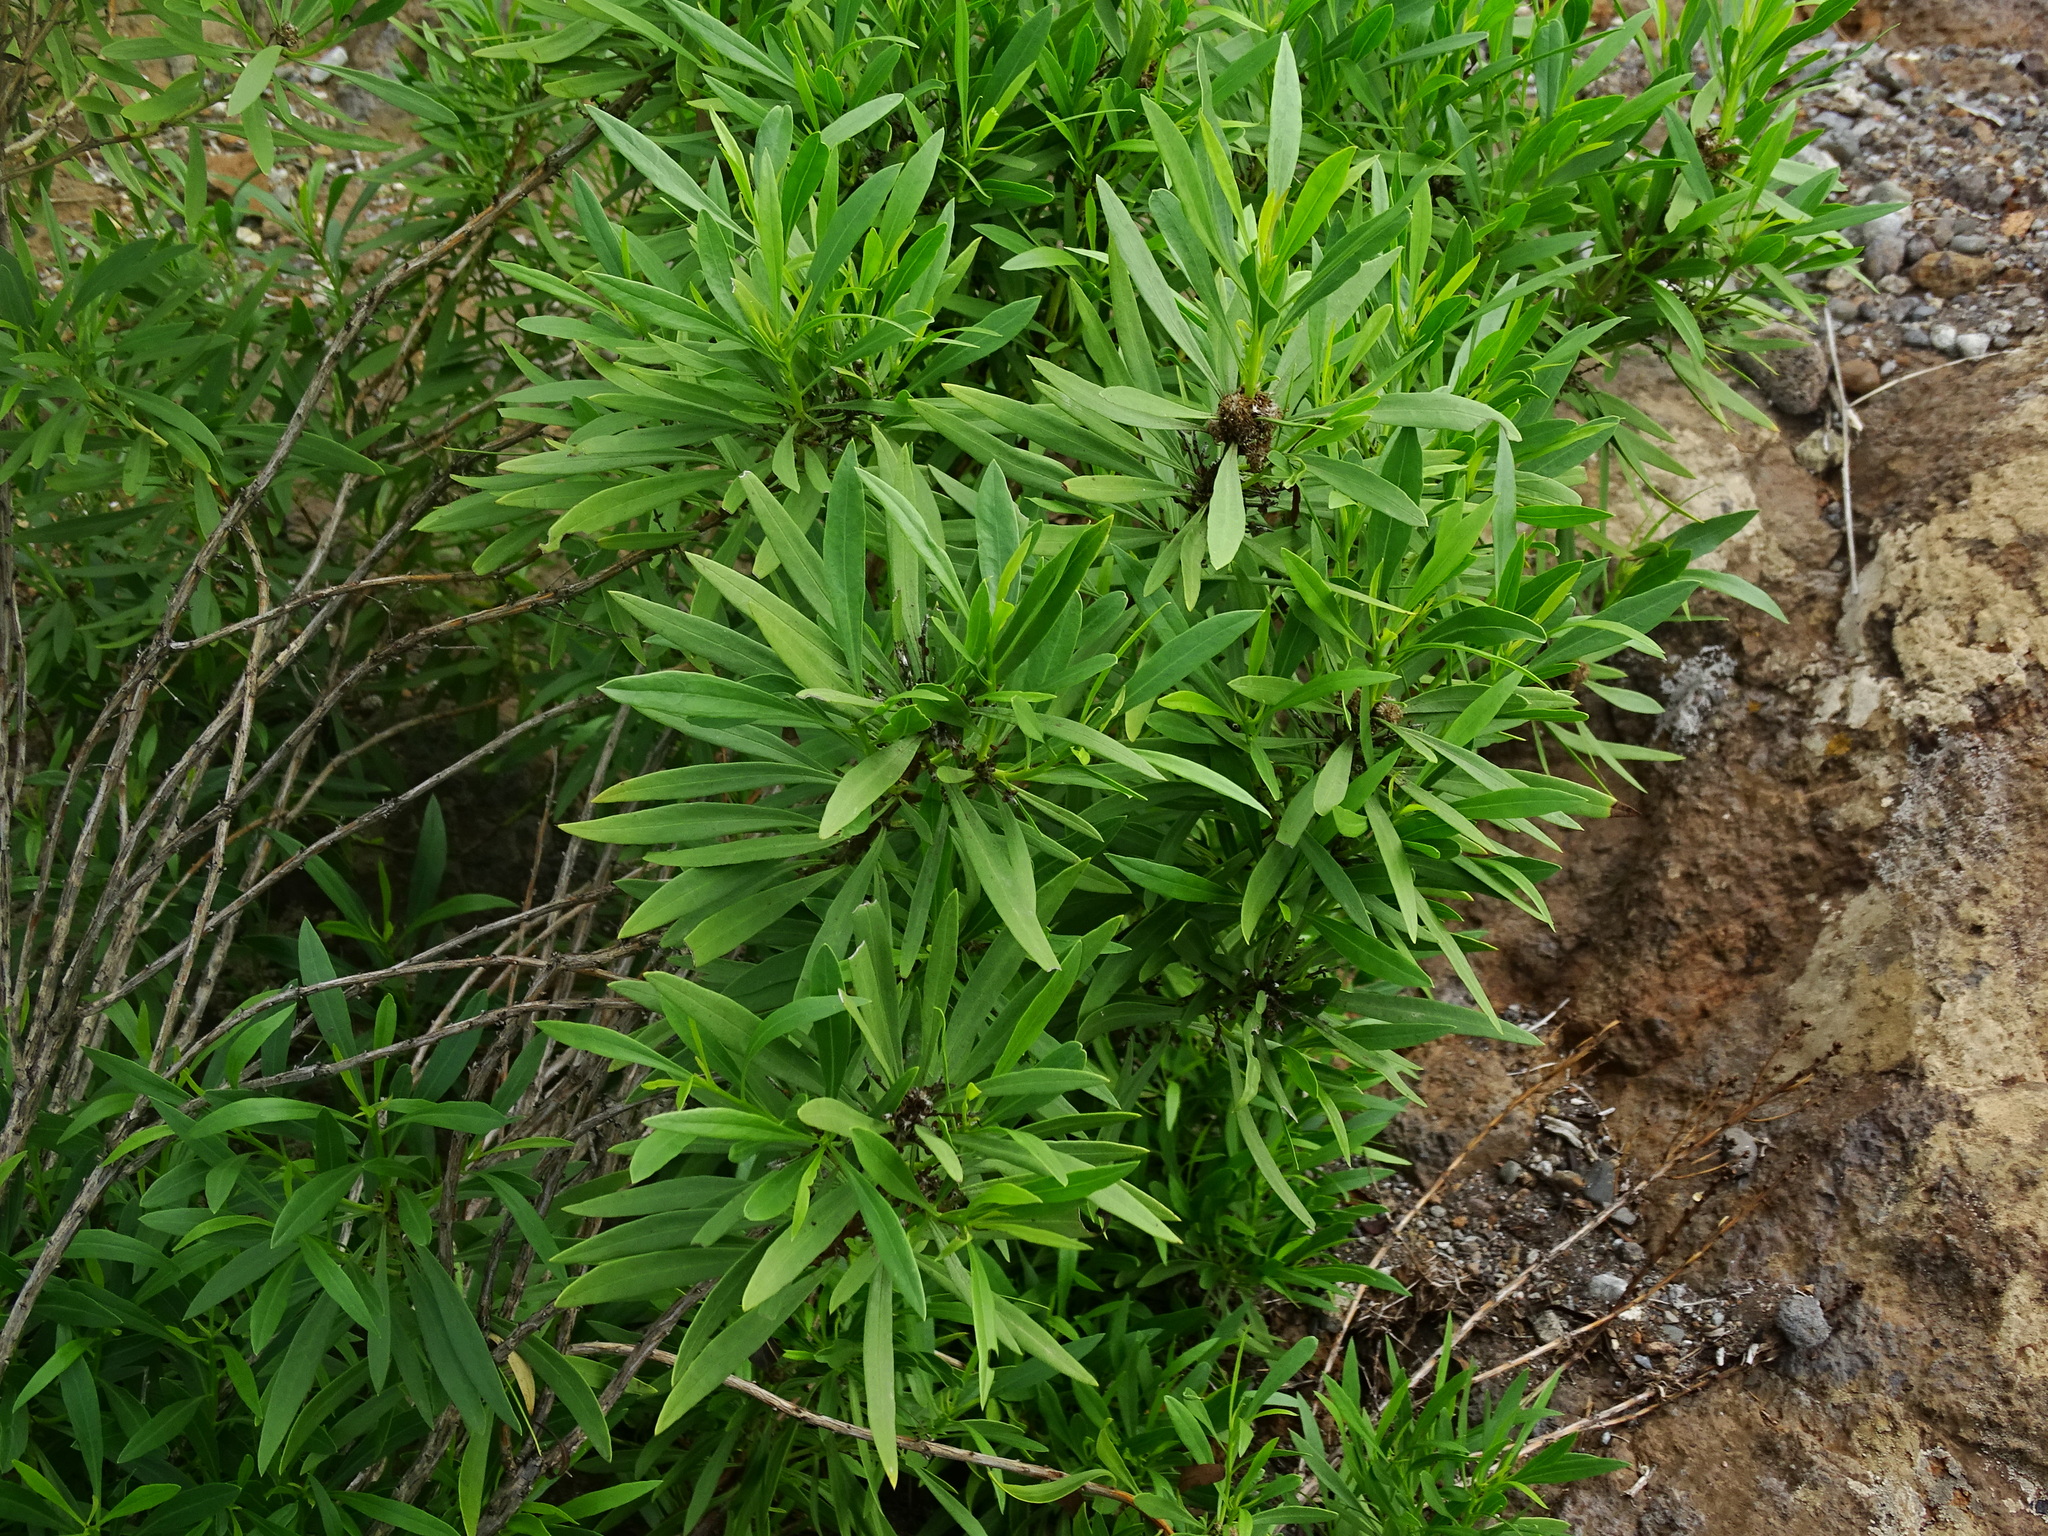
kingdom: Plantae
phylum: Tracheophyta
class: Magnoliopsida
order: Lamiales
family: Plantaginaceae
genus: Globularia
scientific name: Globularia salicina
